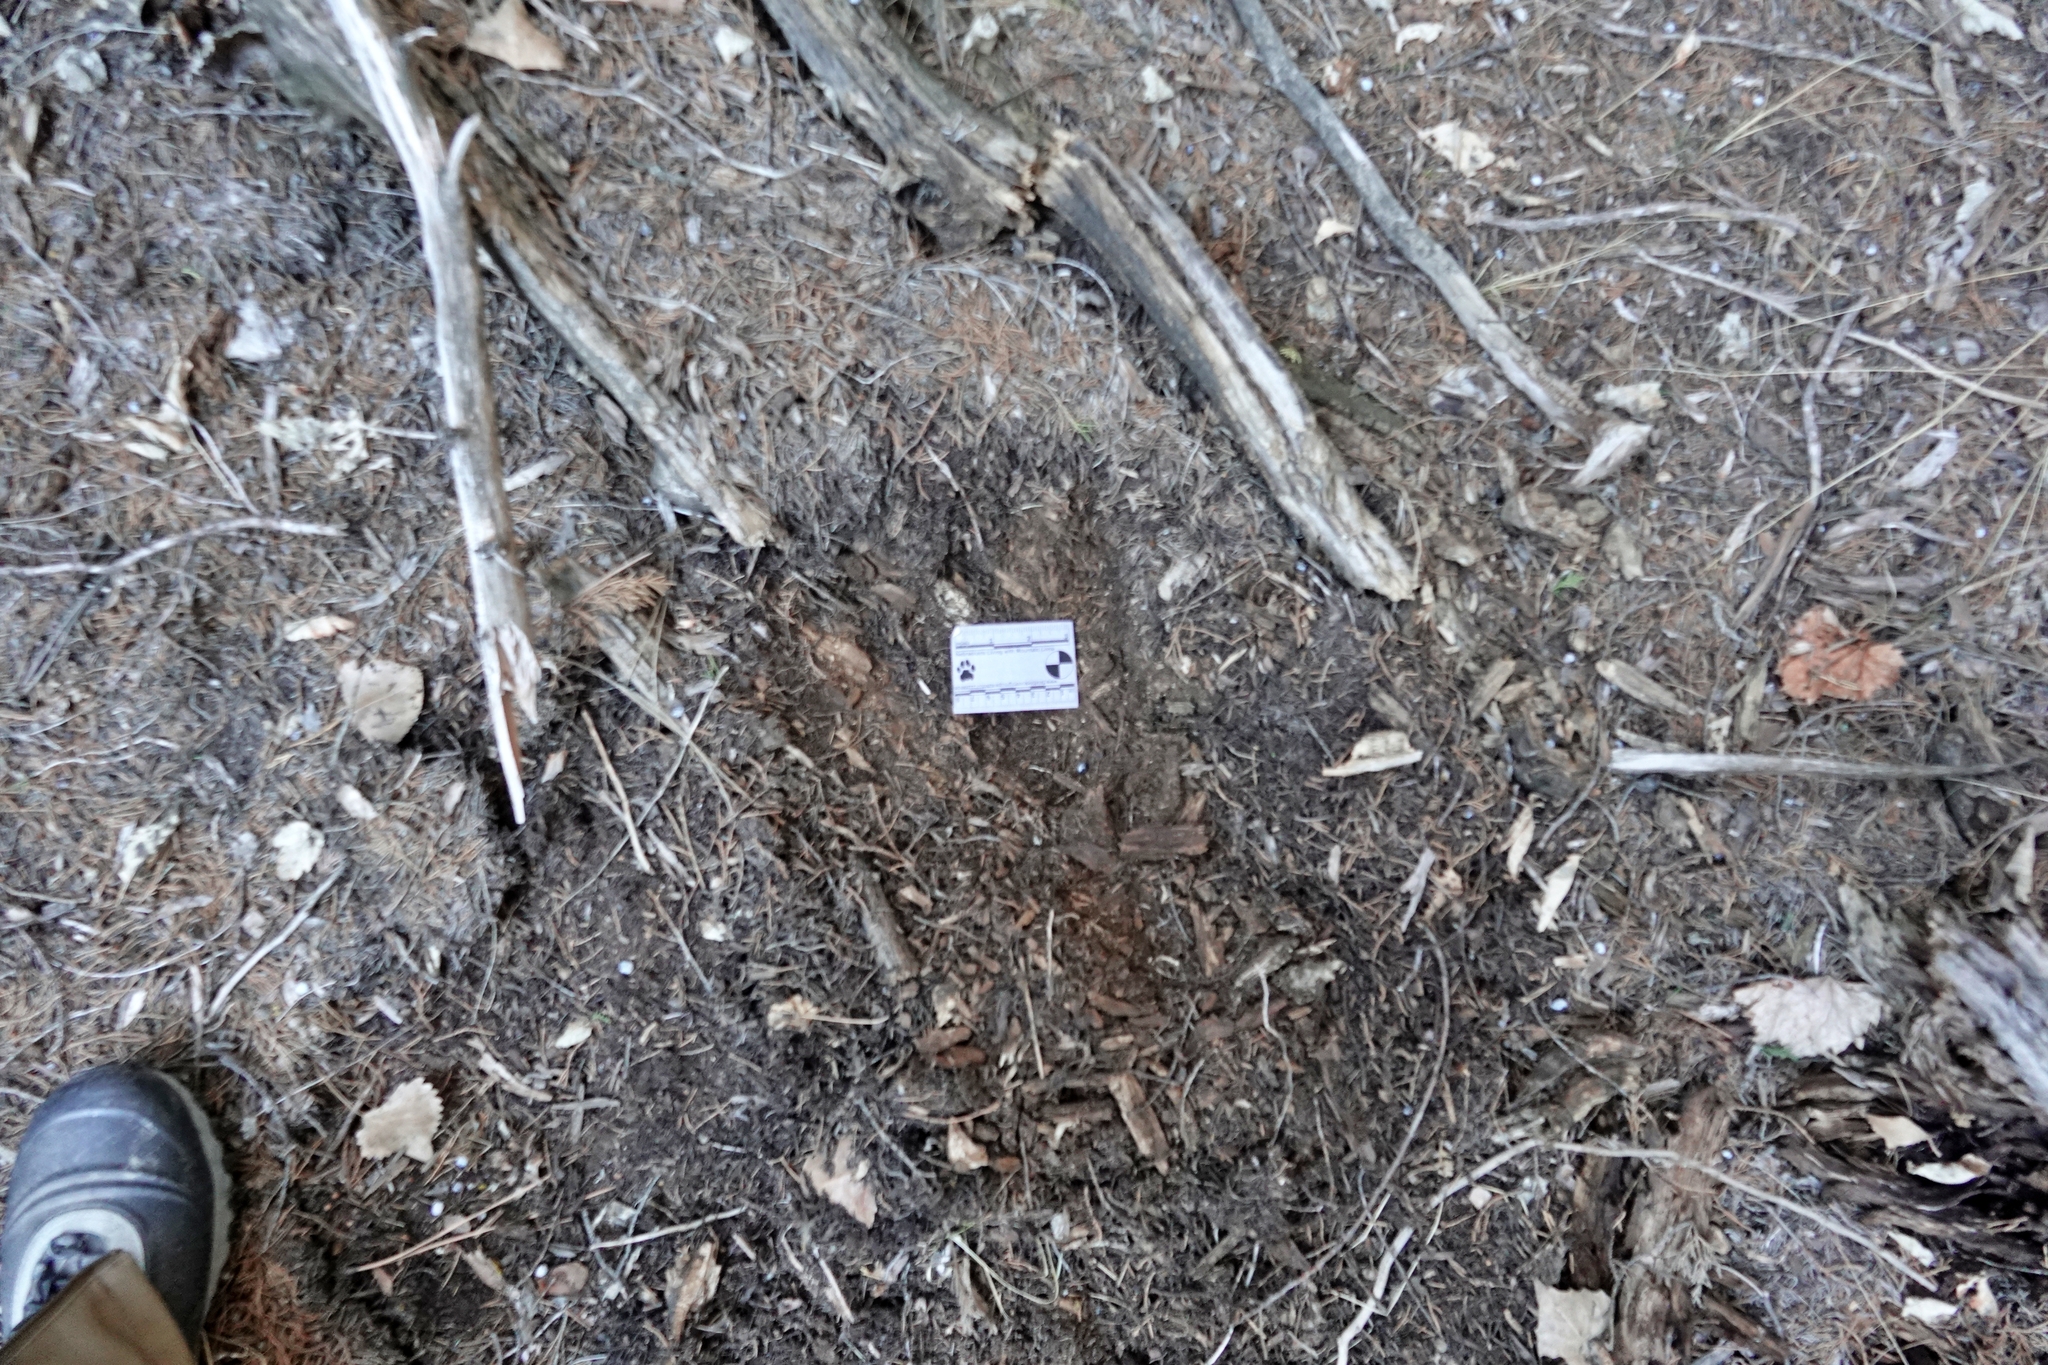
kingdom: Animalia
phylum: Chordata
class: Mammalia
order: Carnivora
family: Felidae
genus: Puma
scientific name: Puma concolor
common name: Puma
